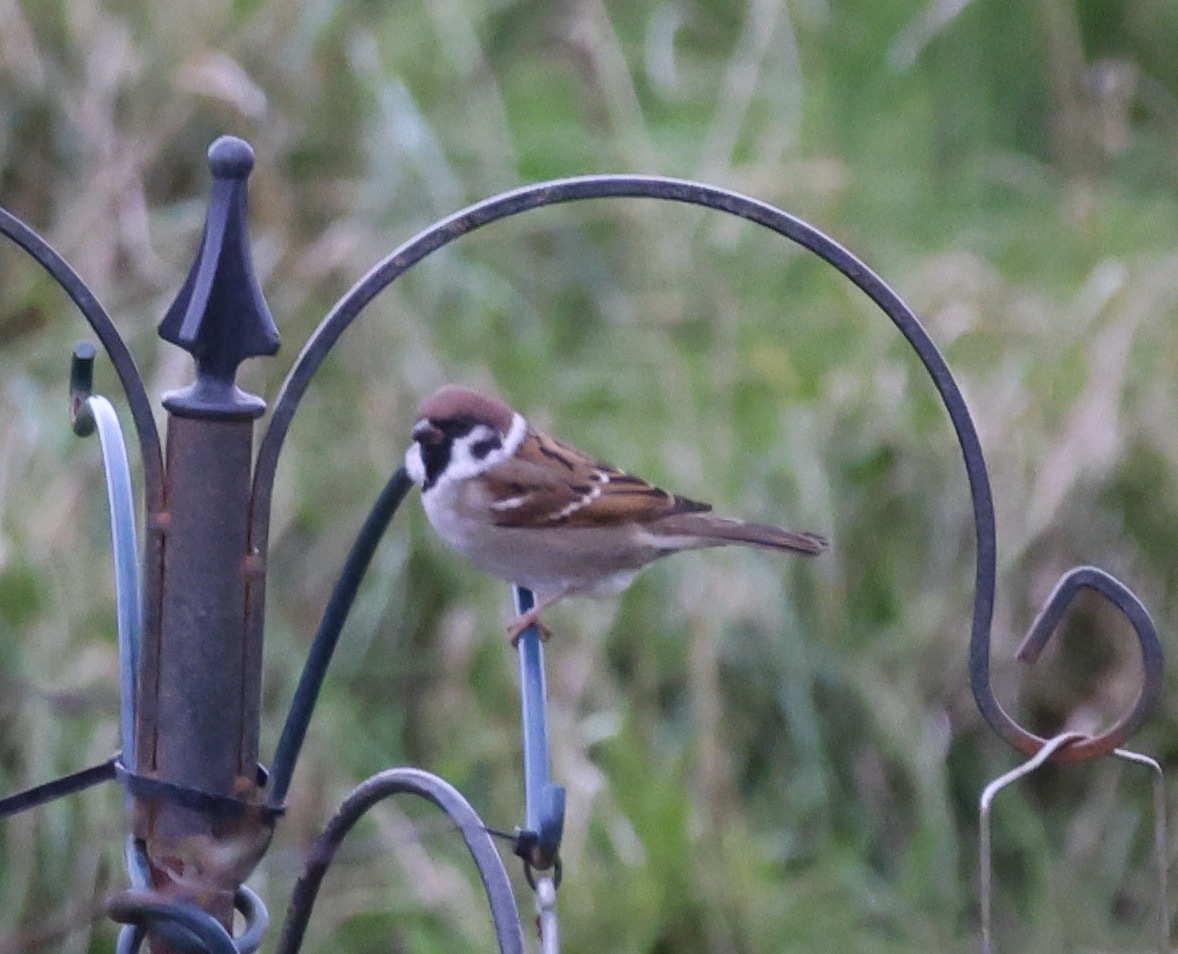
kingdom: Animalia
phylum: Chordata
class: Aves
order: Passeriformes
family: Passeridae
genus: Passer
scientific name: Passer montanus
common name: Eurasian tree sparrow
